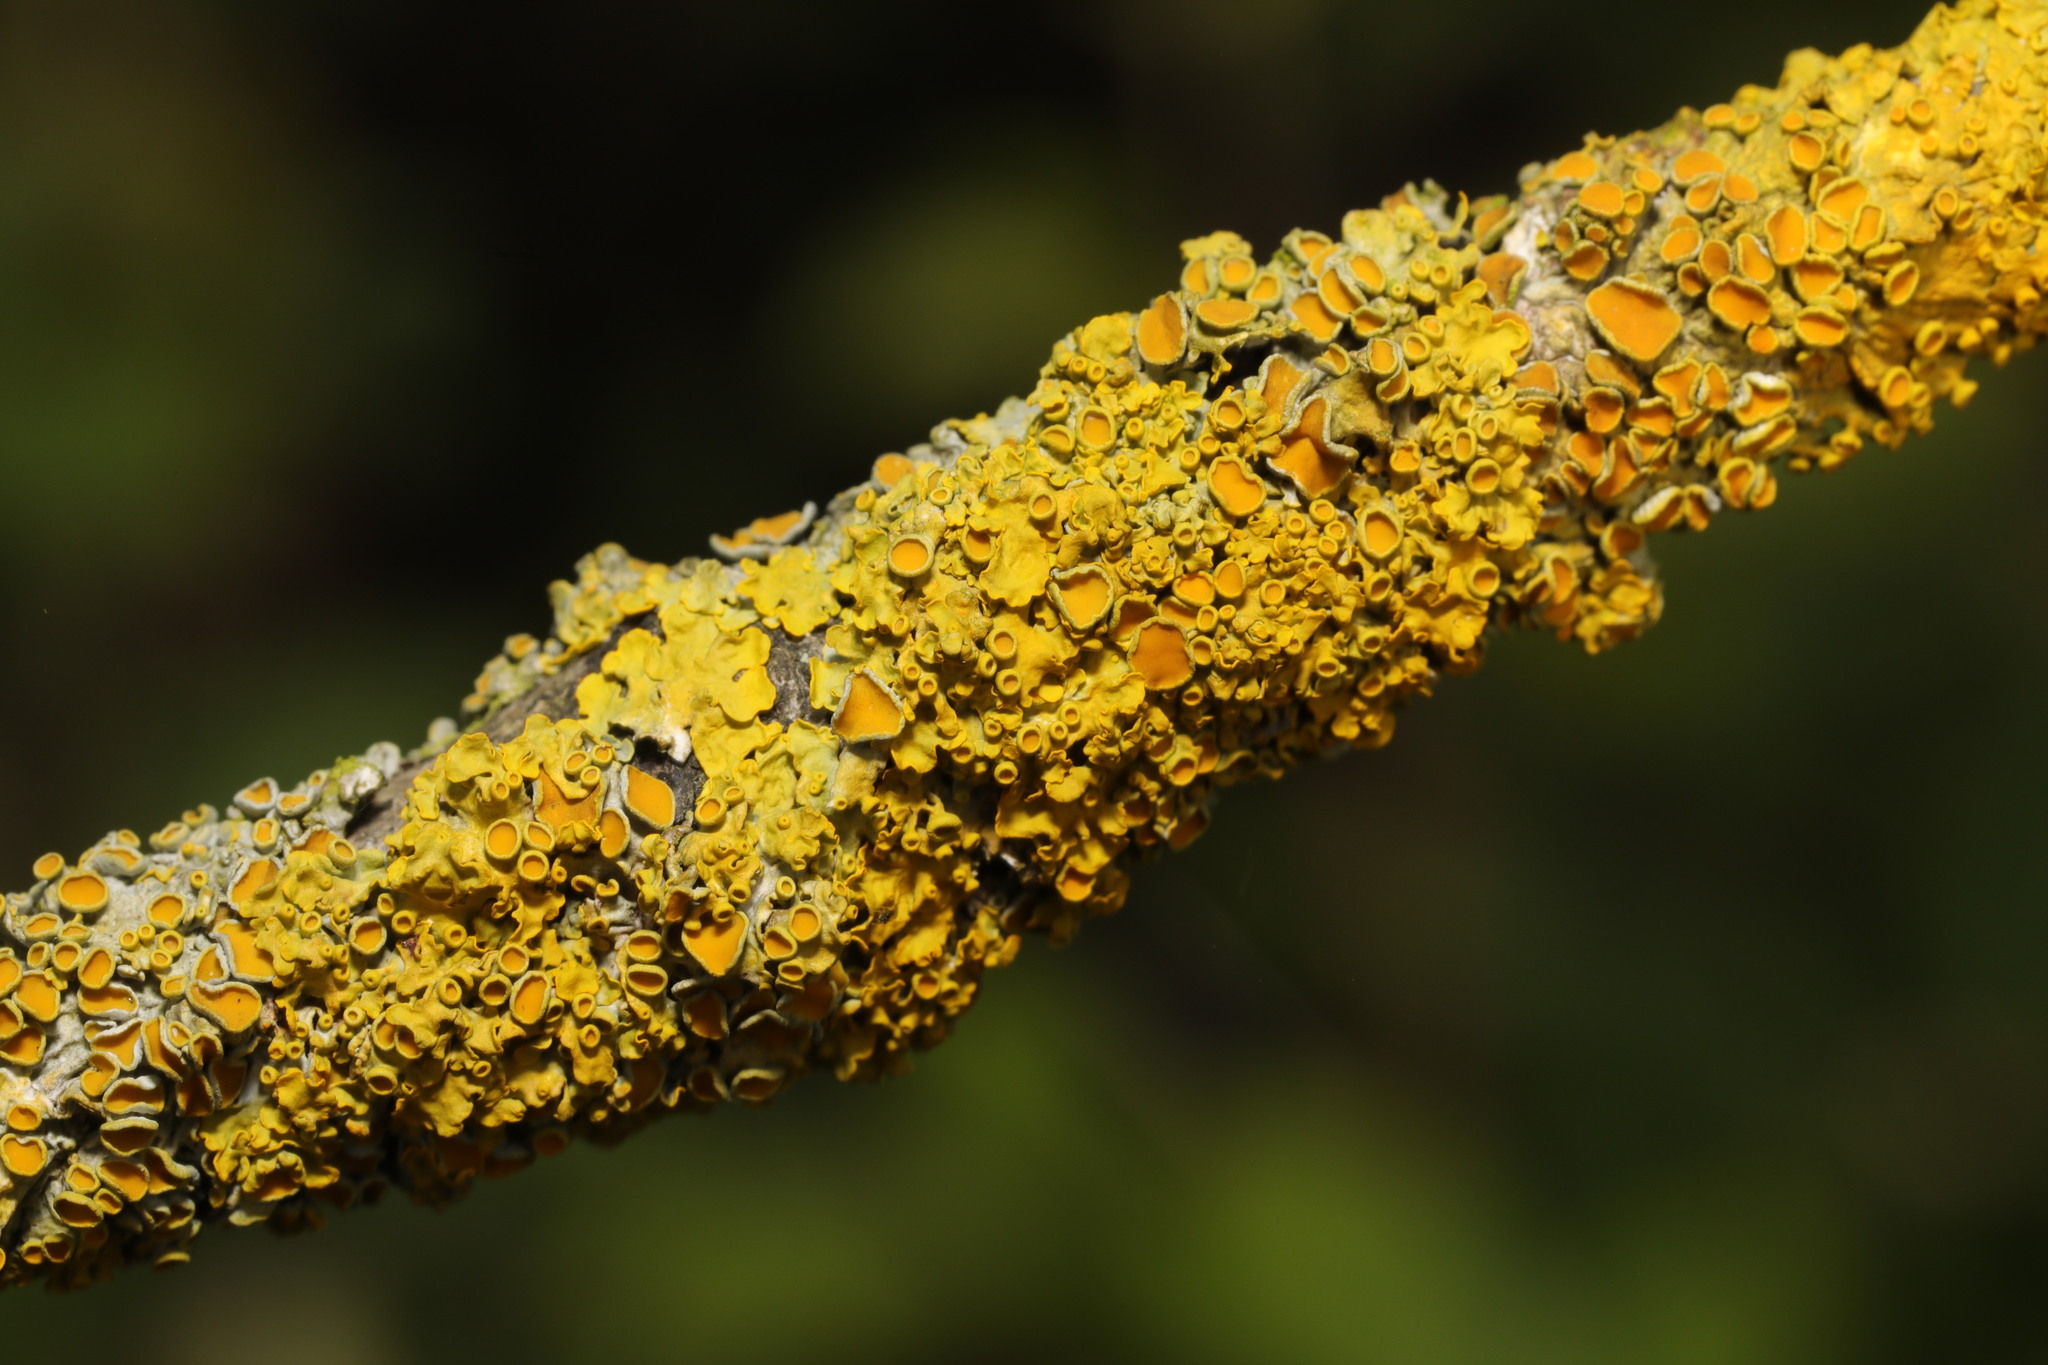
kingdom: Fungi
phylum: Ascomycota
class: Lecanoromycetes
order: Teloschistales
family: Teloschistaceae
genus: Xanthoria
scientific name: Xanthoria parietina
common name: Common orange lichen
